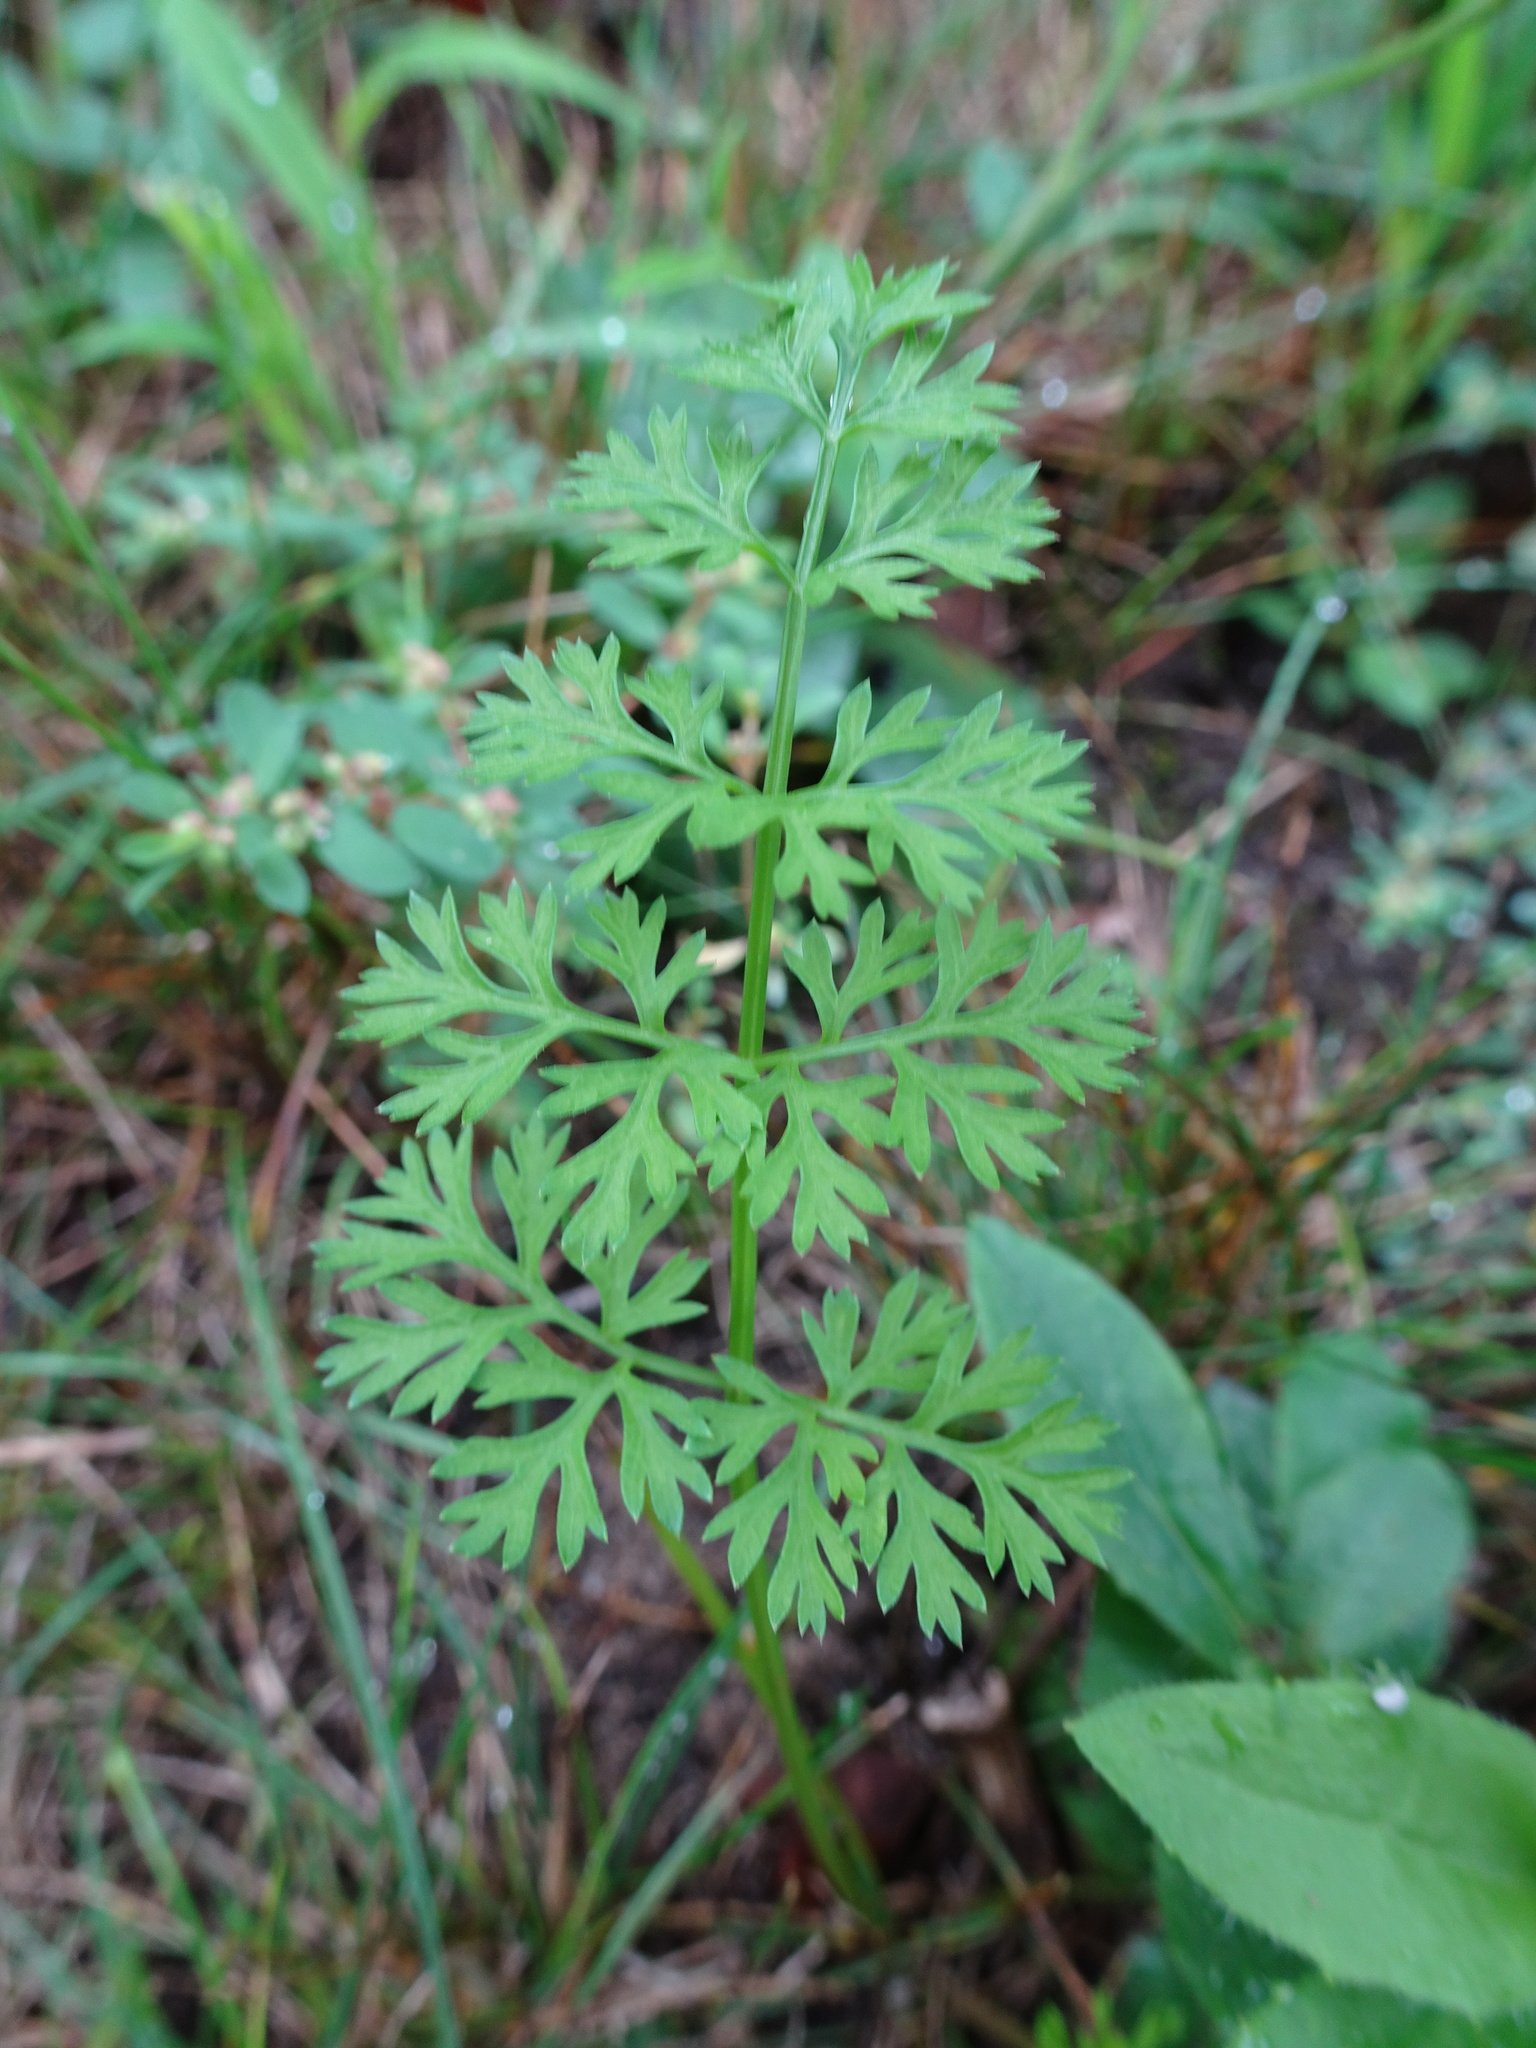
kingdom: Plantae
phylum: Tracheophyta
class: Magnoliopsida
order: Apiales
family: Apiaceae
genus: Daucus
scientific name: Daucus carota
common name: Wild carrot
